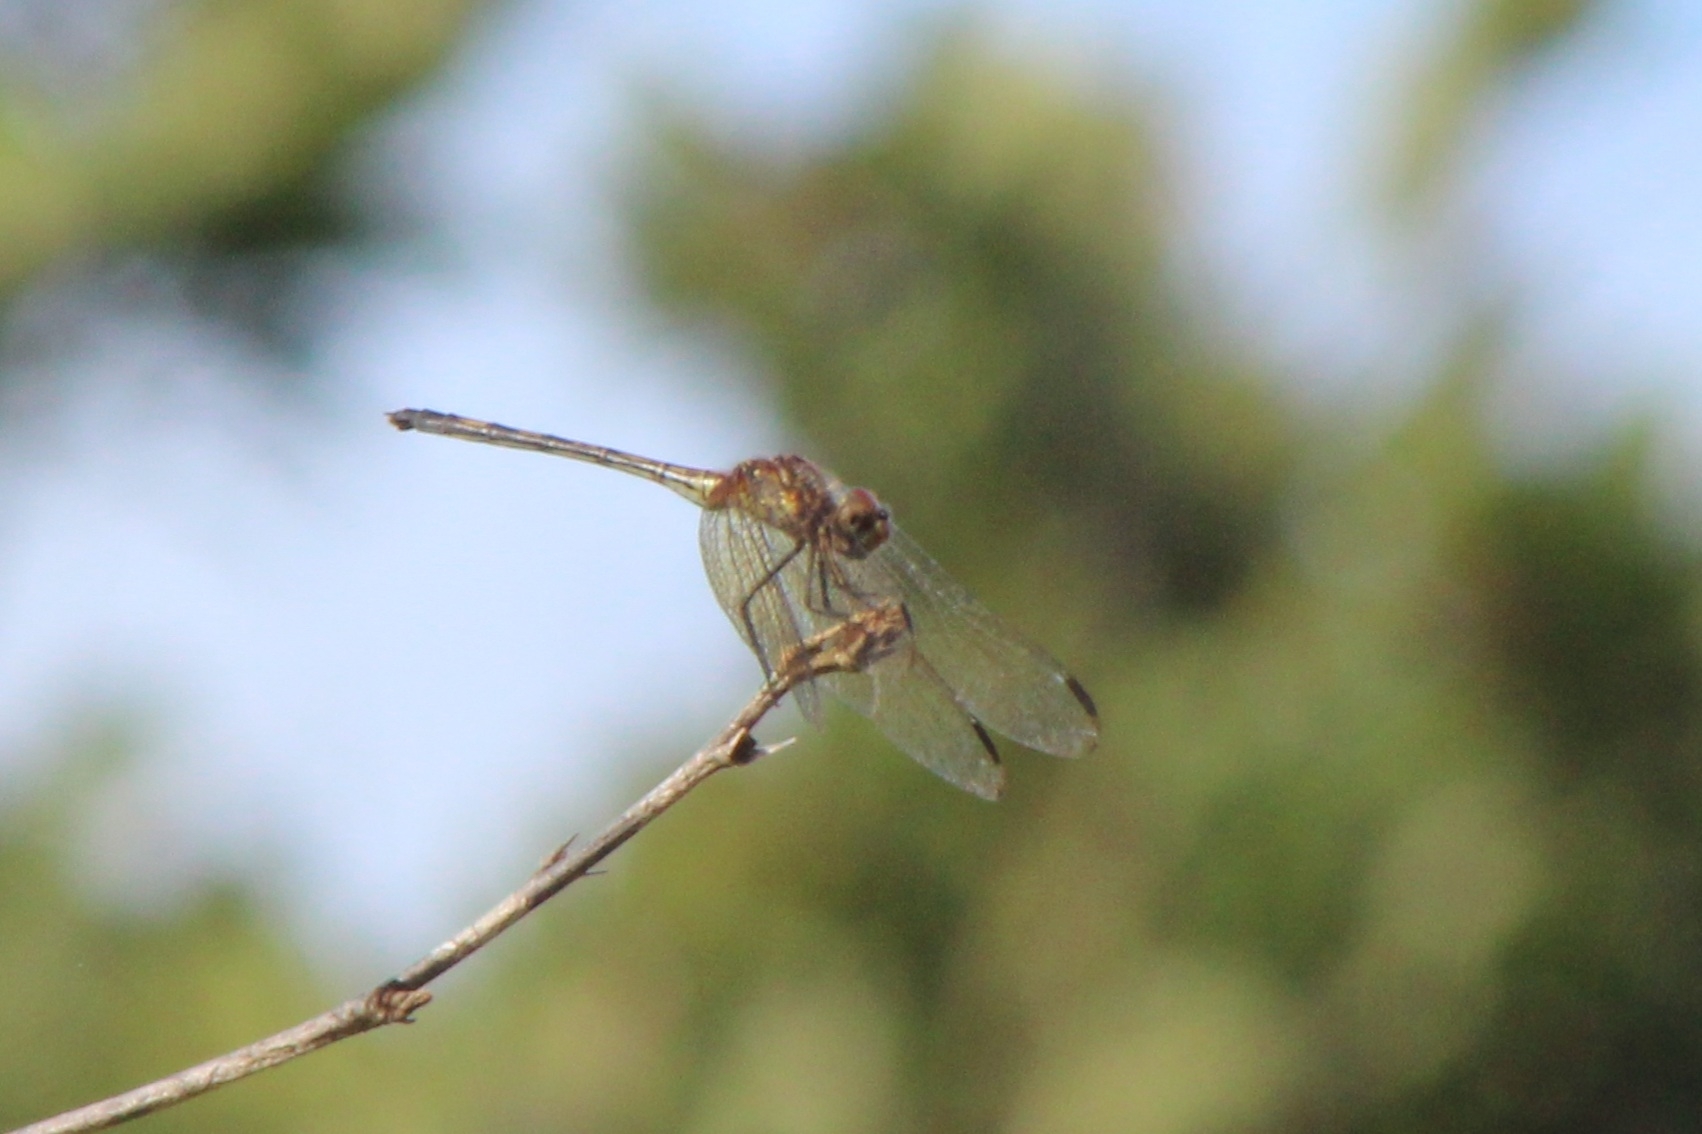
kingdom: Animalia
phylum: Arthropoda
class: Insecta
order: Odonata
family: Libellulidae
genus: Dythemis
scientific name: Dythemis sterilis
